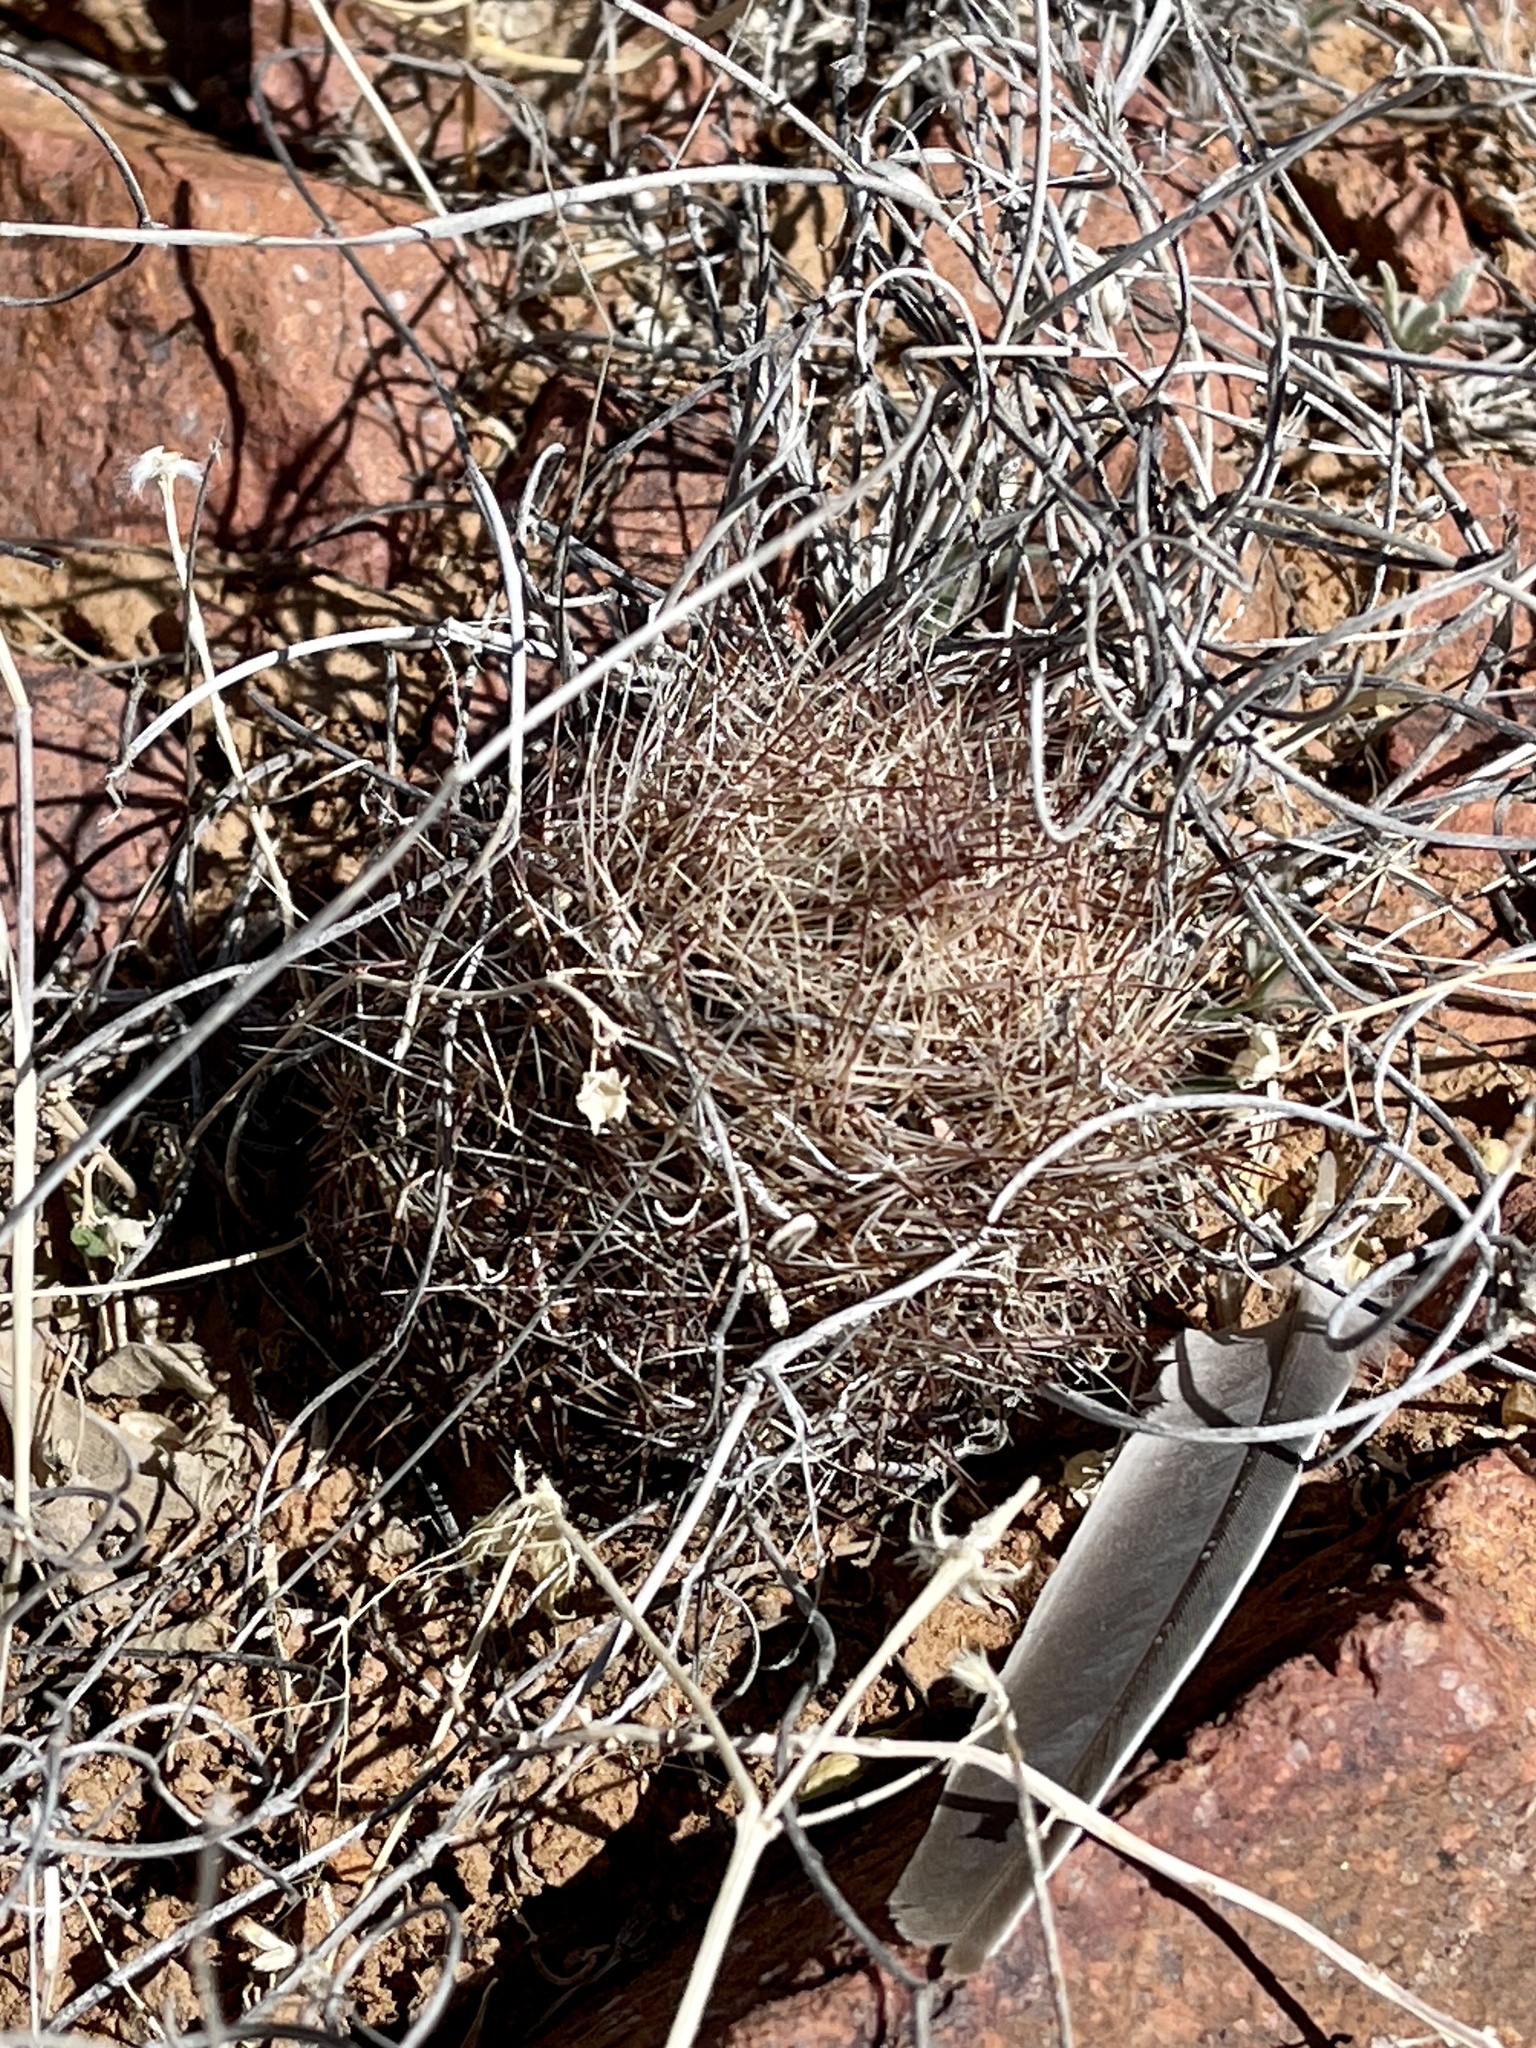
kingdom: Plantae
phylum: Tracheophyta
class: Magnoliopsida
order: Caryophyllales
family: Cactaceae
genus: Sclerocactus
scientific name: Sclerocactus intertextus
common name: White fish-hook cactus
